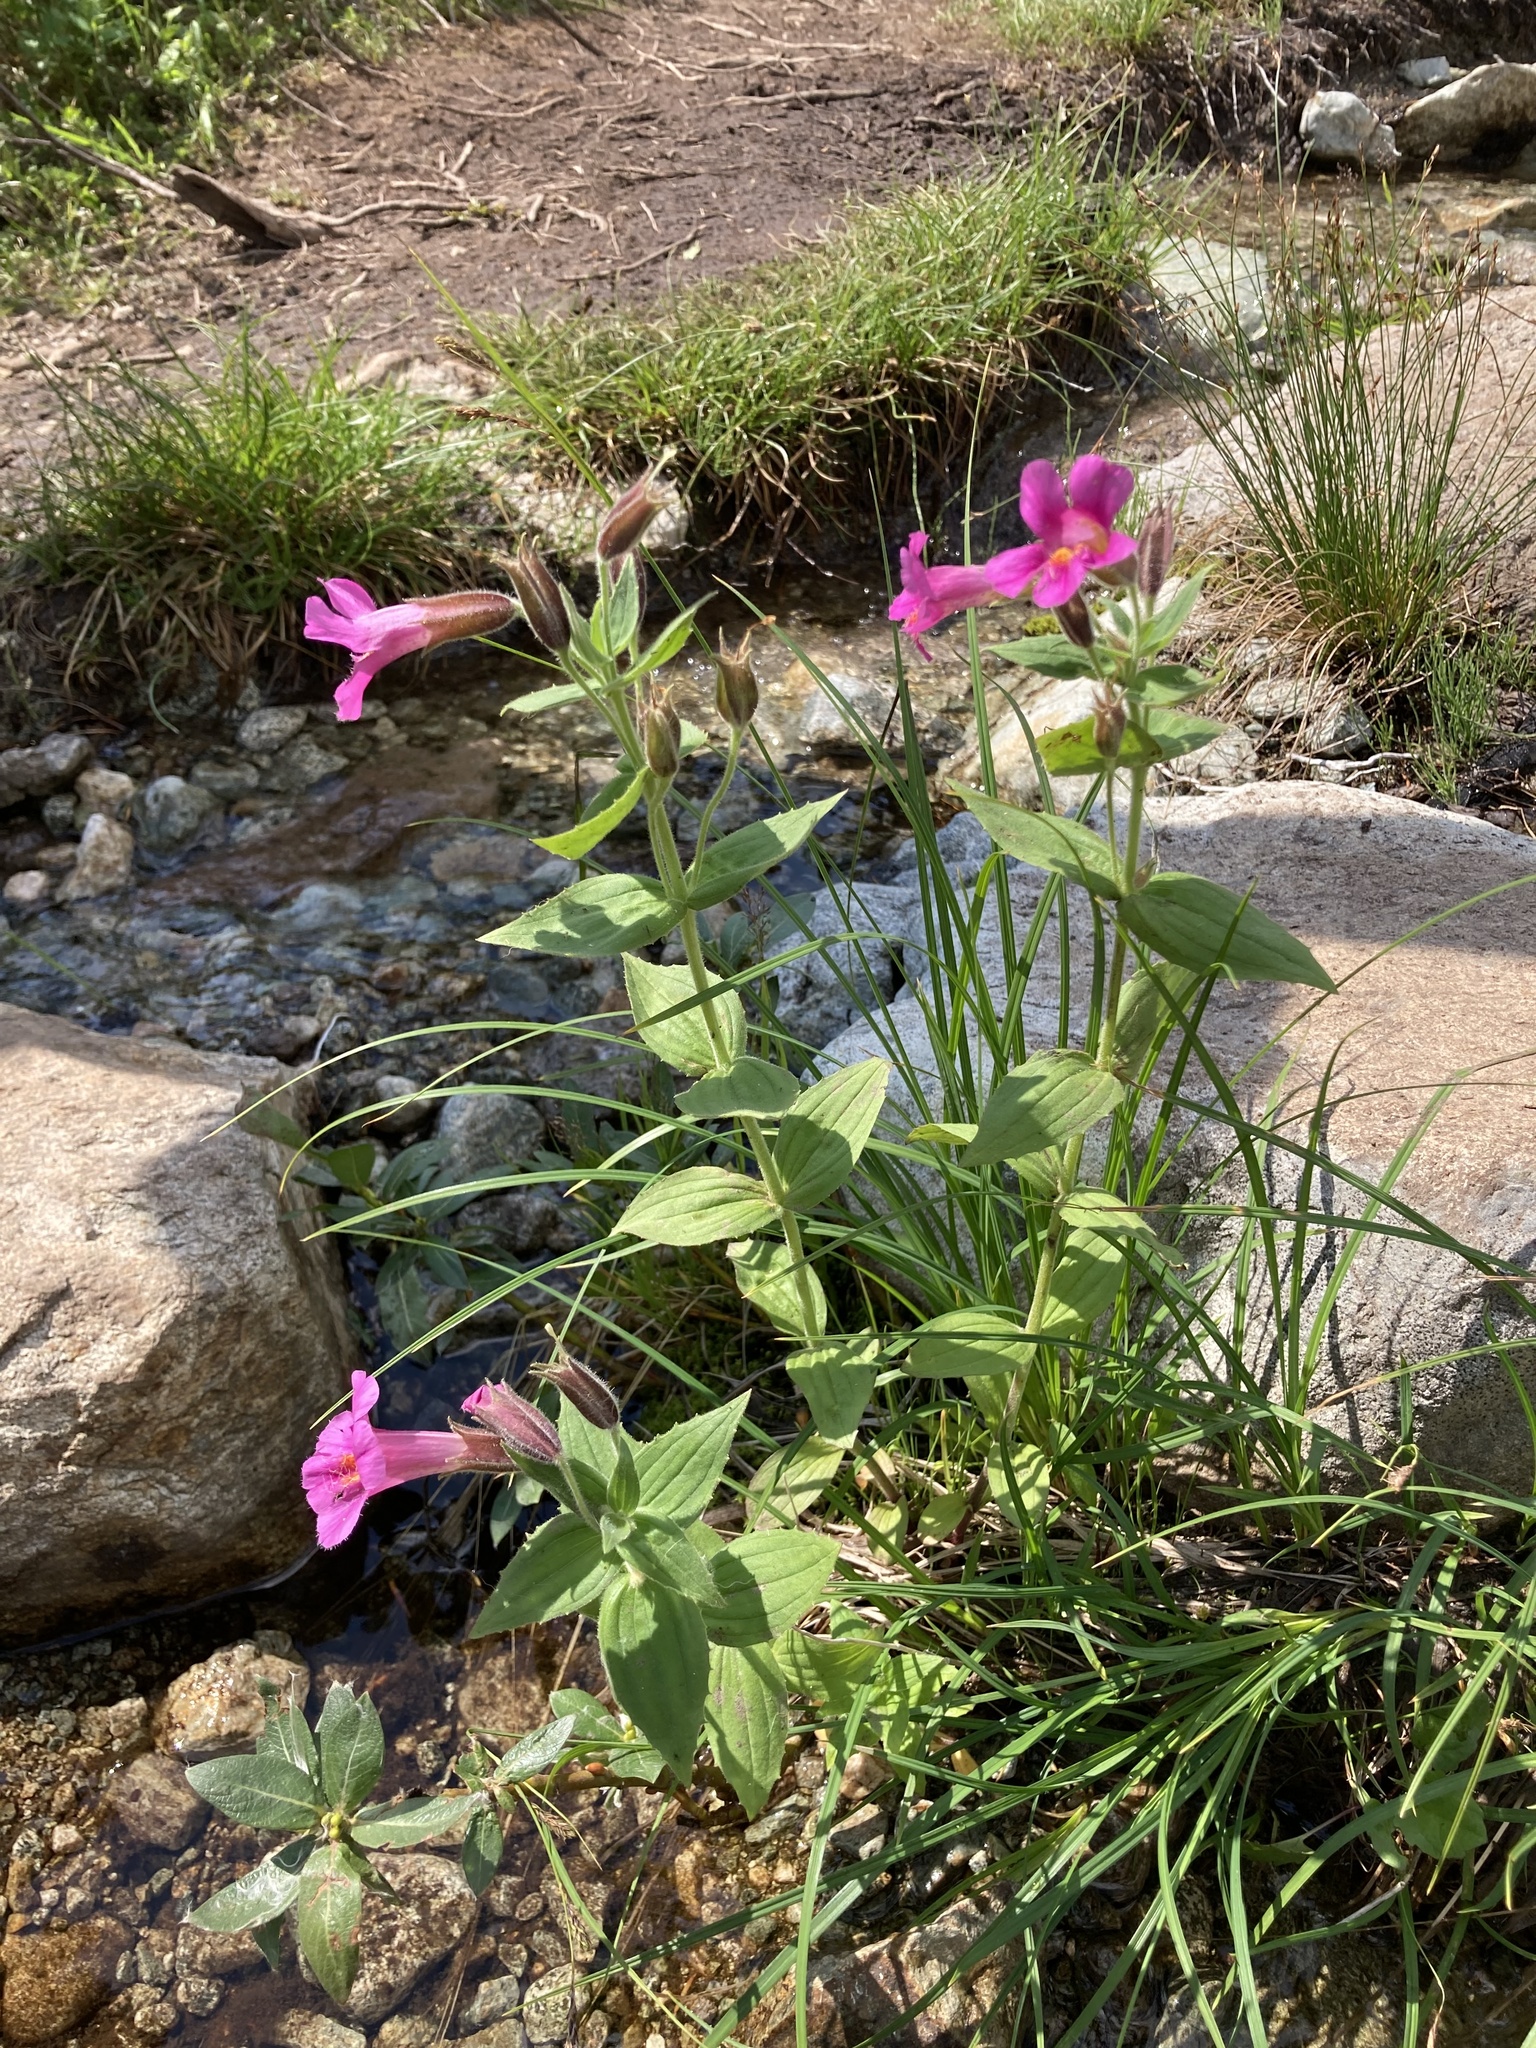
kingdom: Plantae
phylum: Tracheophyta
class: Magnoliopsida
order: Lamiales
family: Phrymaceae
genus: Erythranthe
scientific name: Erythranthe lewisii
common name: Lewis's monkey-flower
